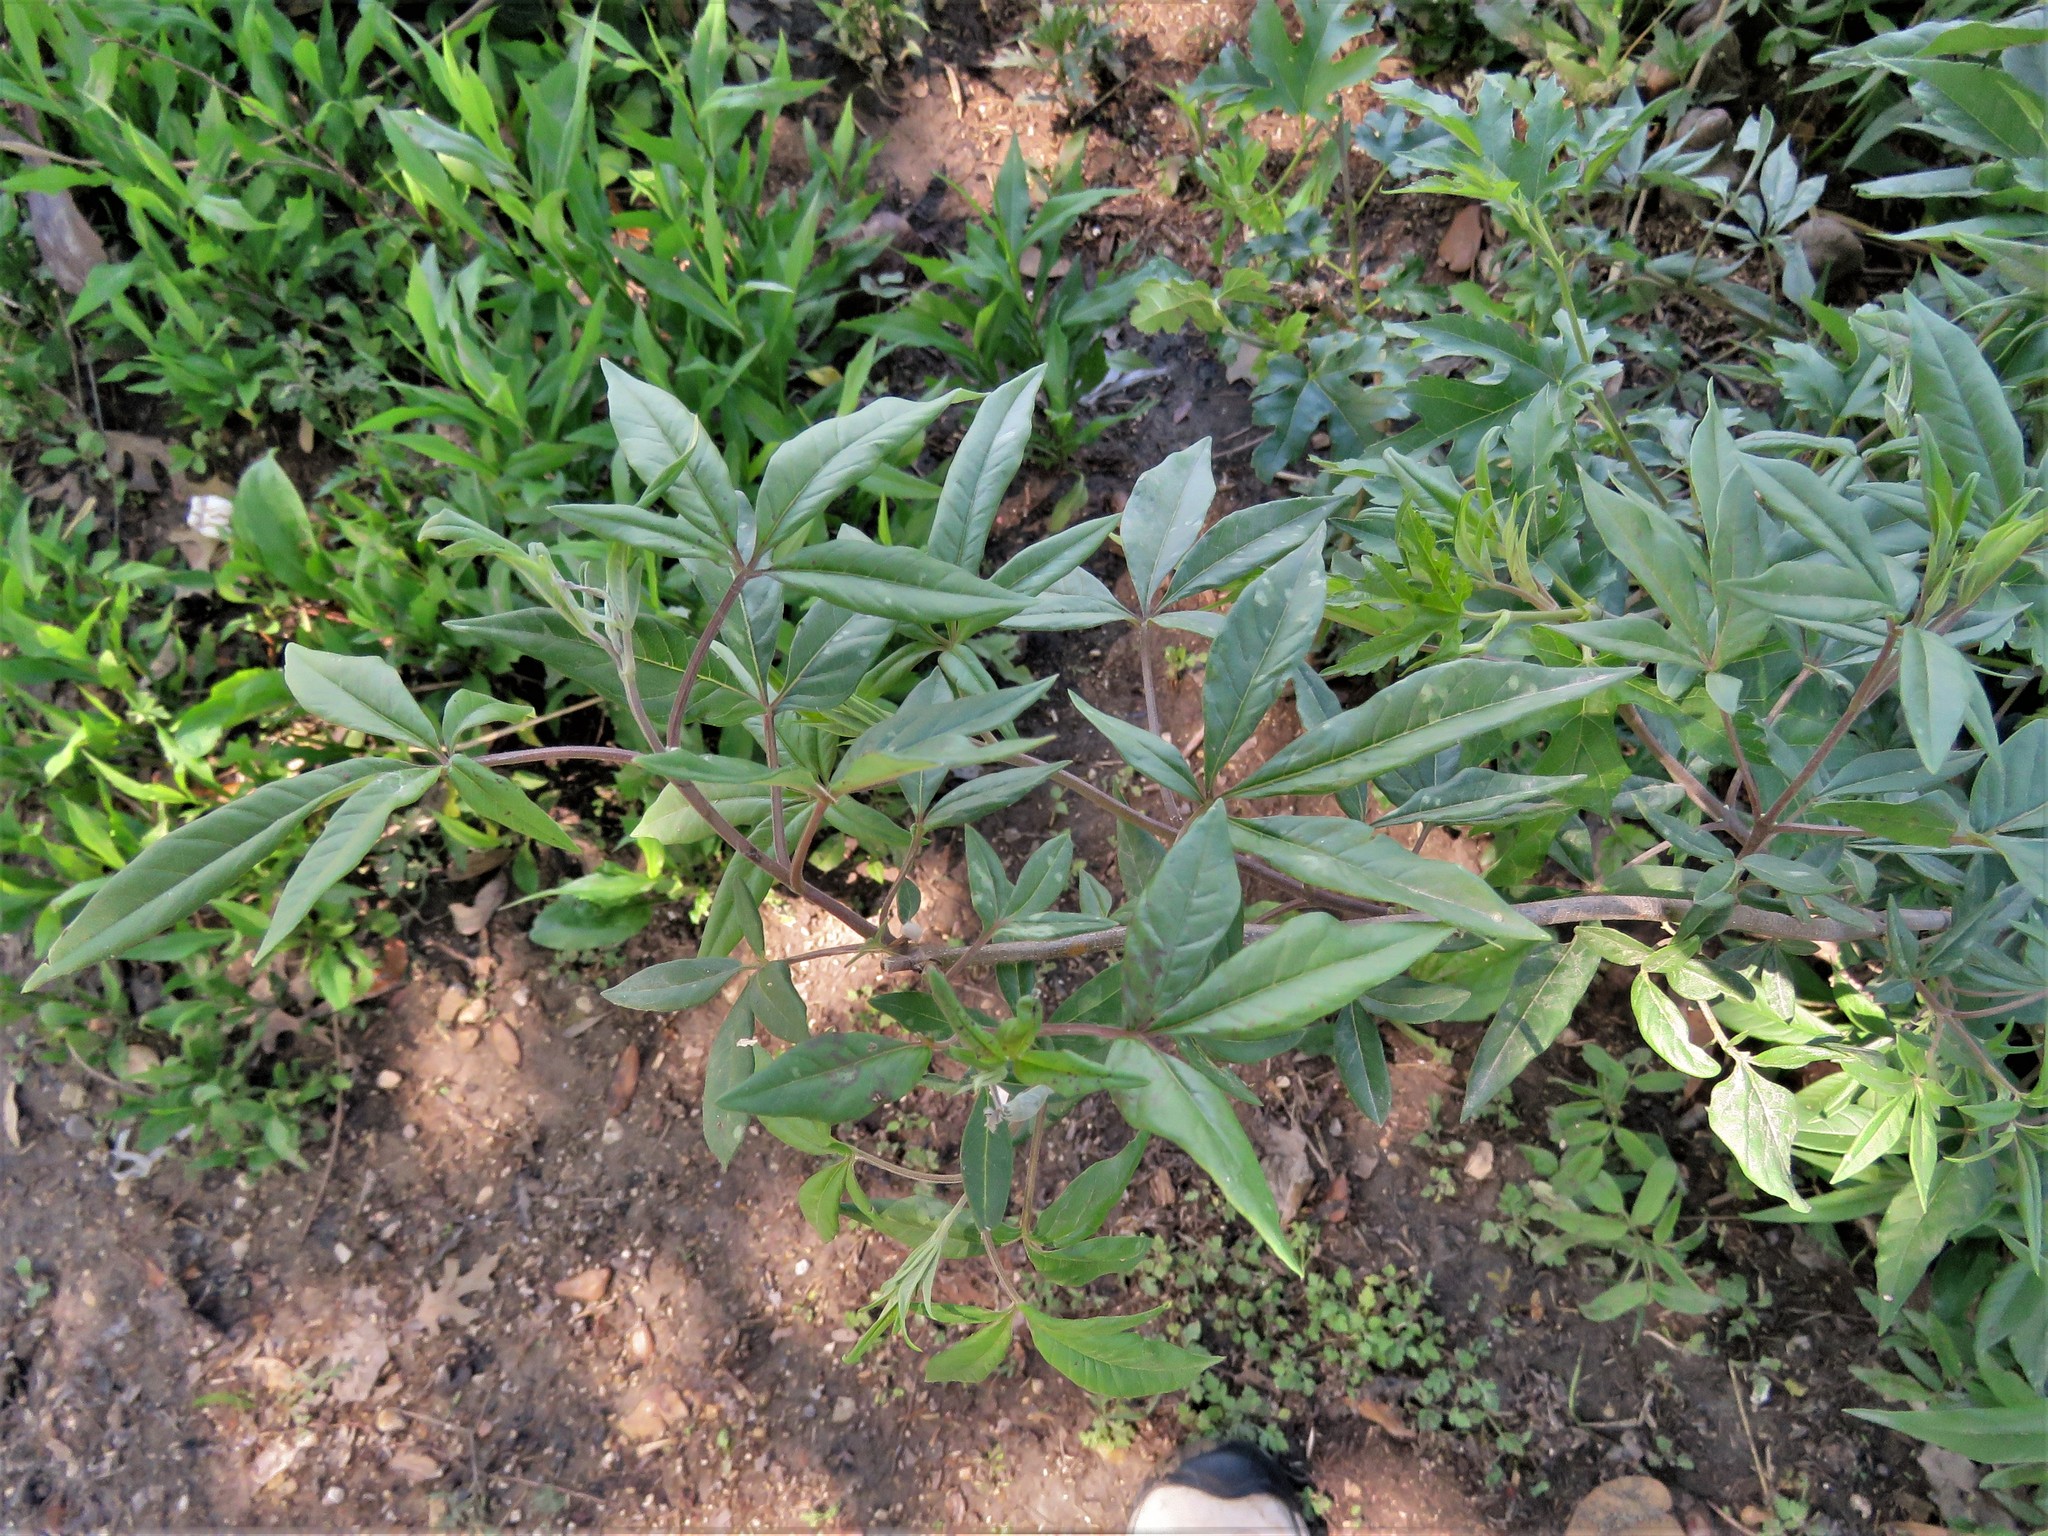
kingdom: Plantae
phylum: Tracheophyta
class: Magnoliopsida
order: Lamiales
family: Lamiaceae
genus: Vitex
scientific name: Vitex agnus-castus
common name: Chasteberry
